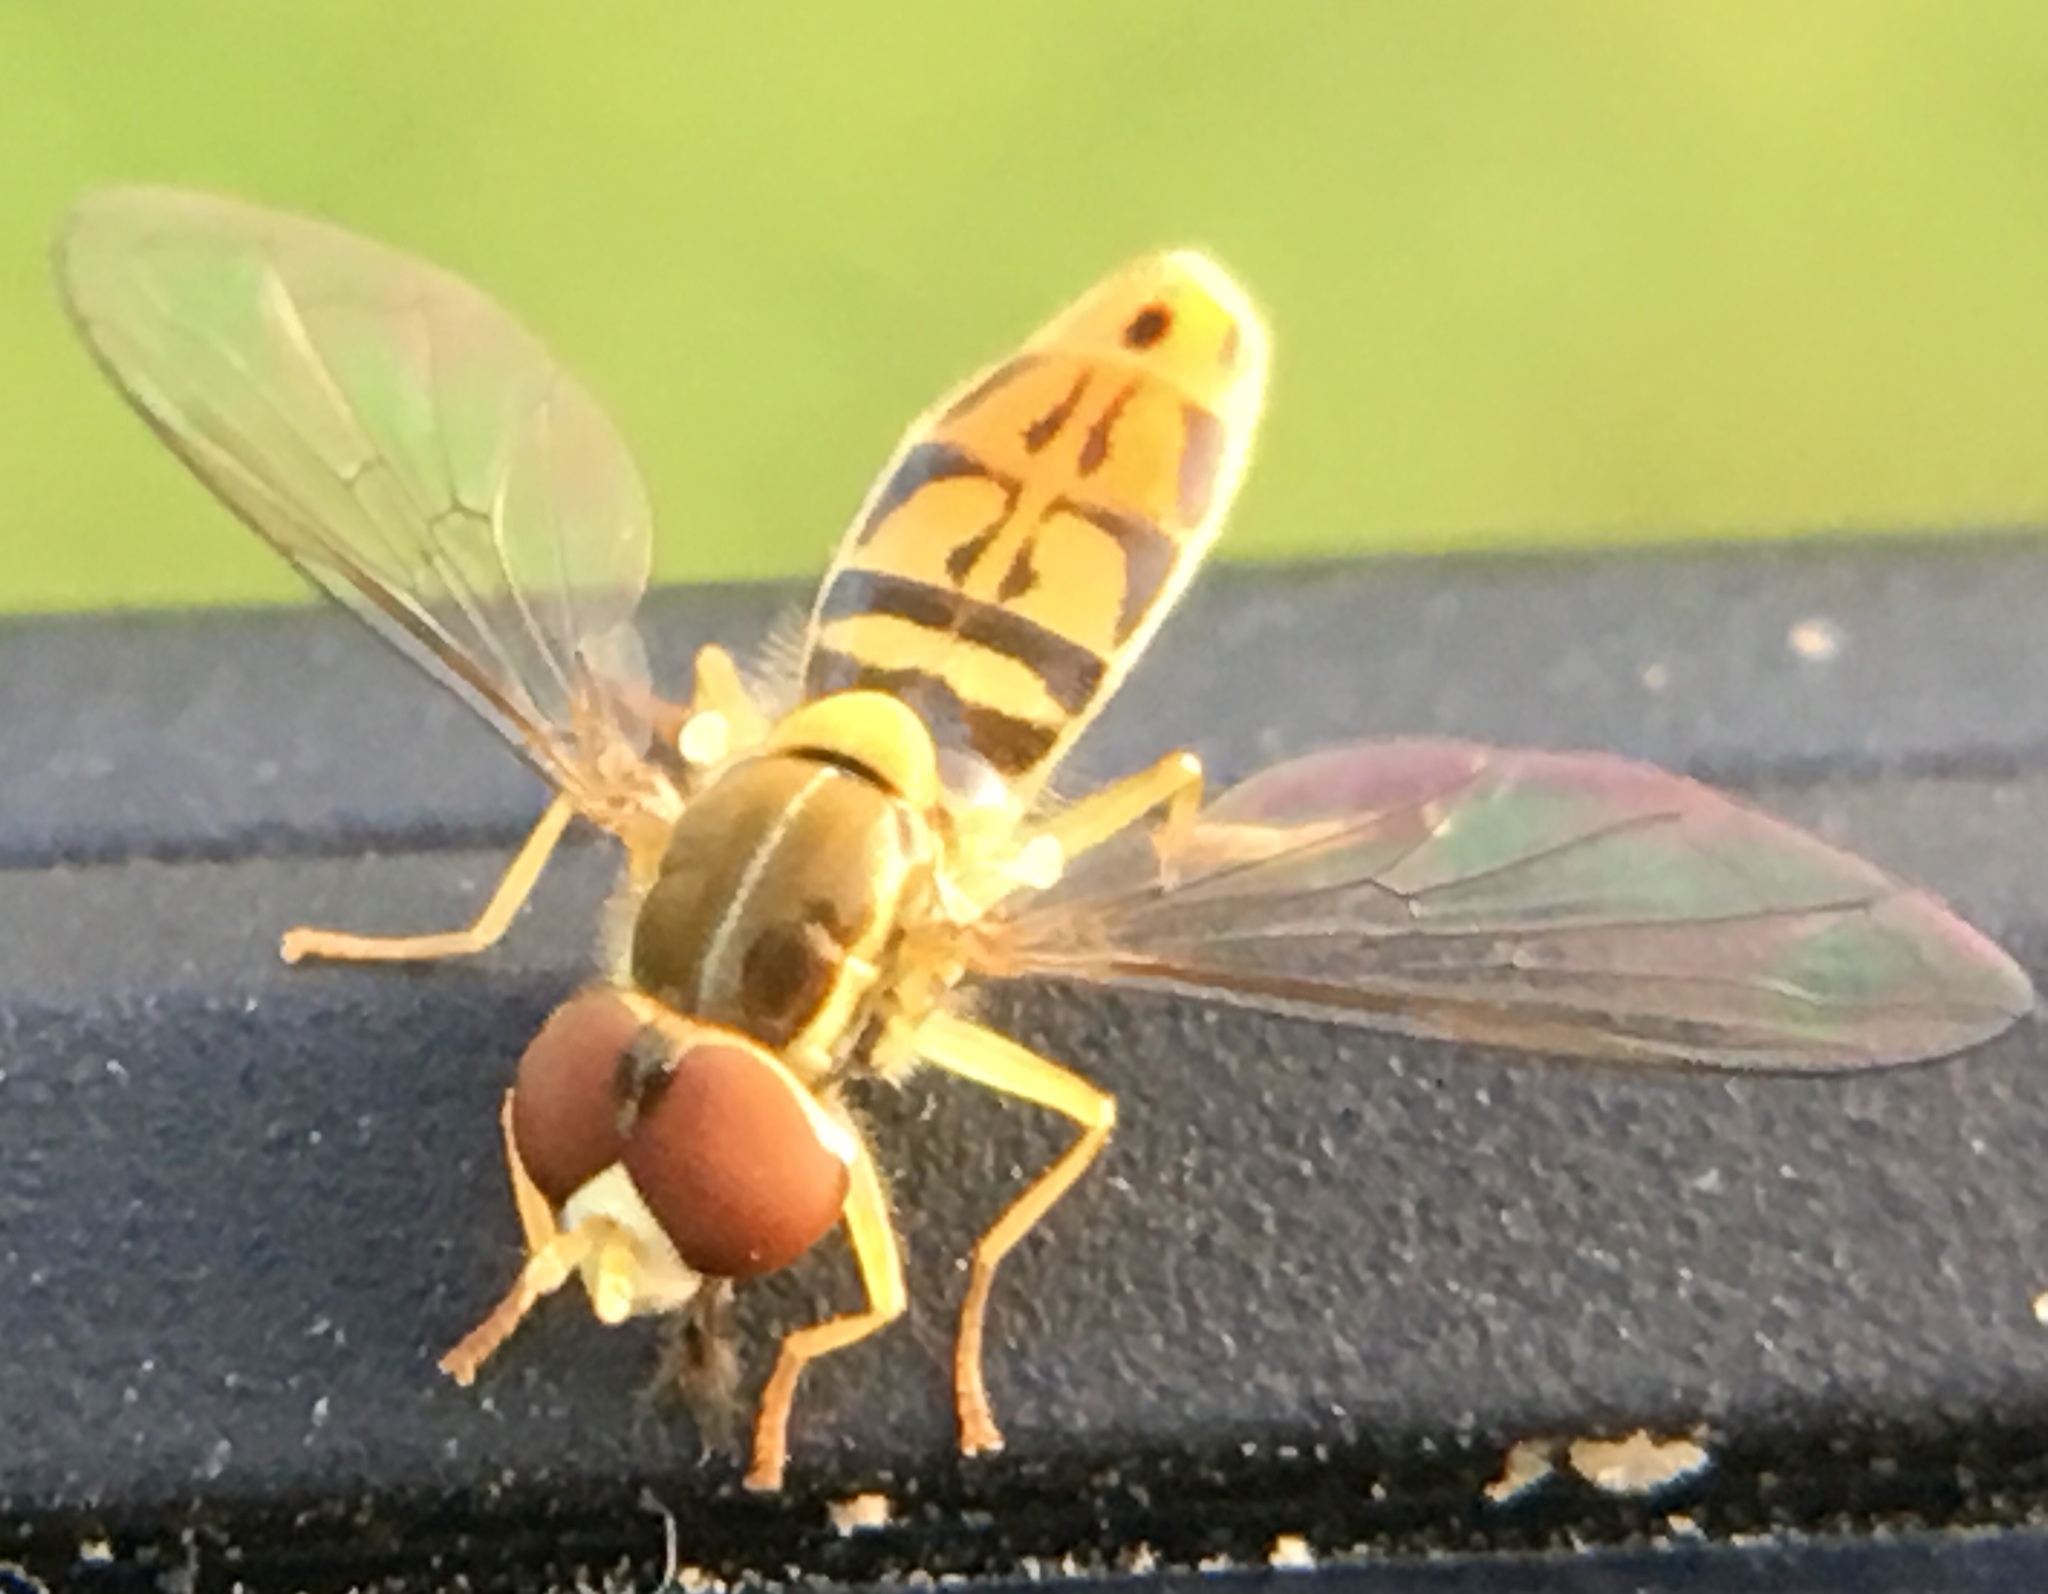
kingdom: Animalia
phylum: Arthropoda
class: Insecta
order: Diptera
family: Syrphidae
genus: Toxomerus
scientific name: Toxomerus marginatus
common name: Syrphid fly
